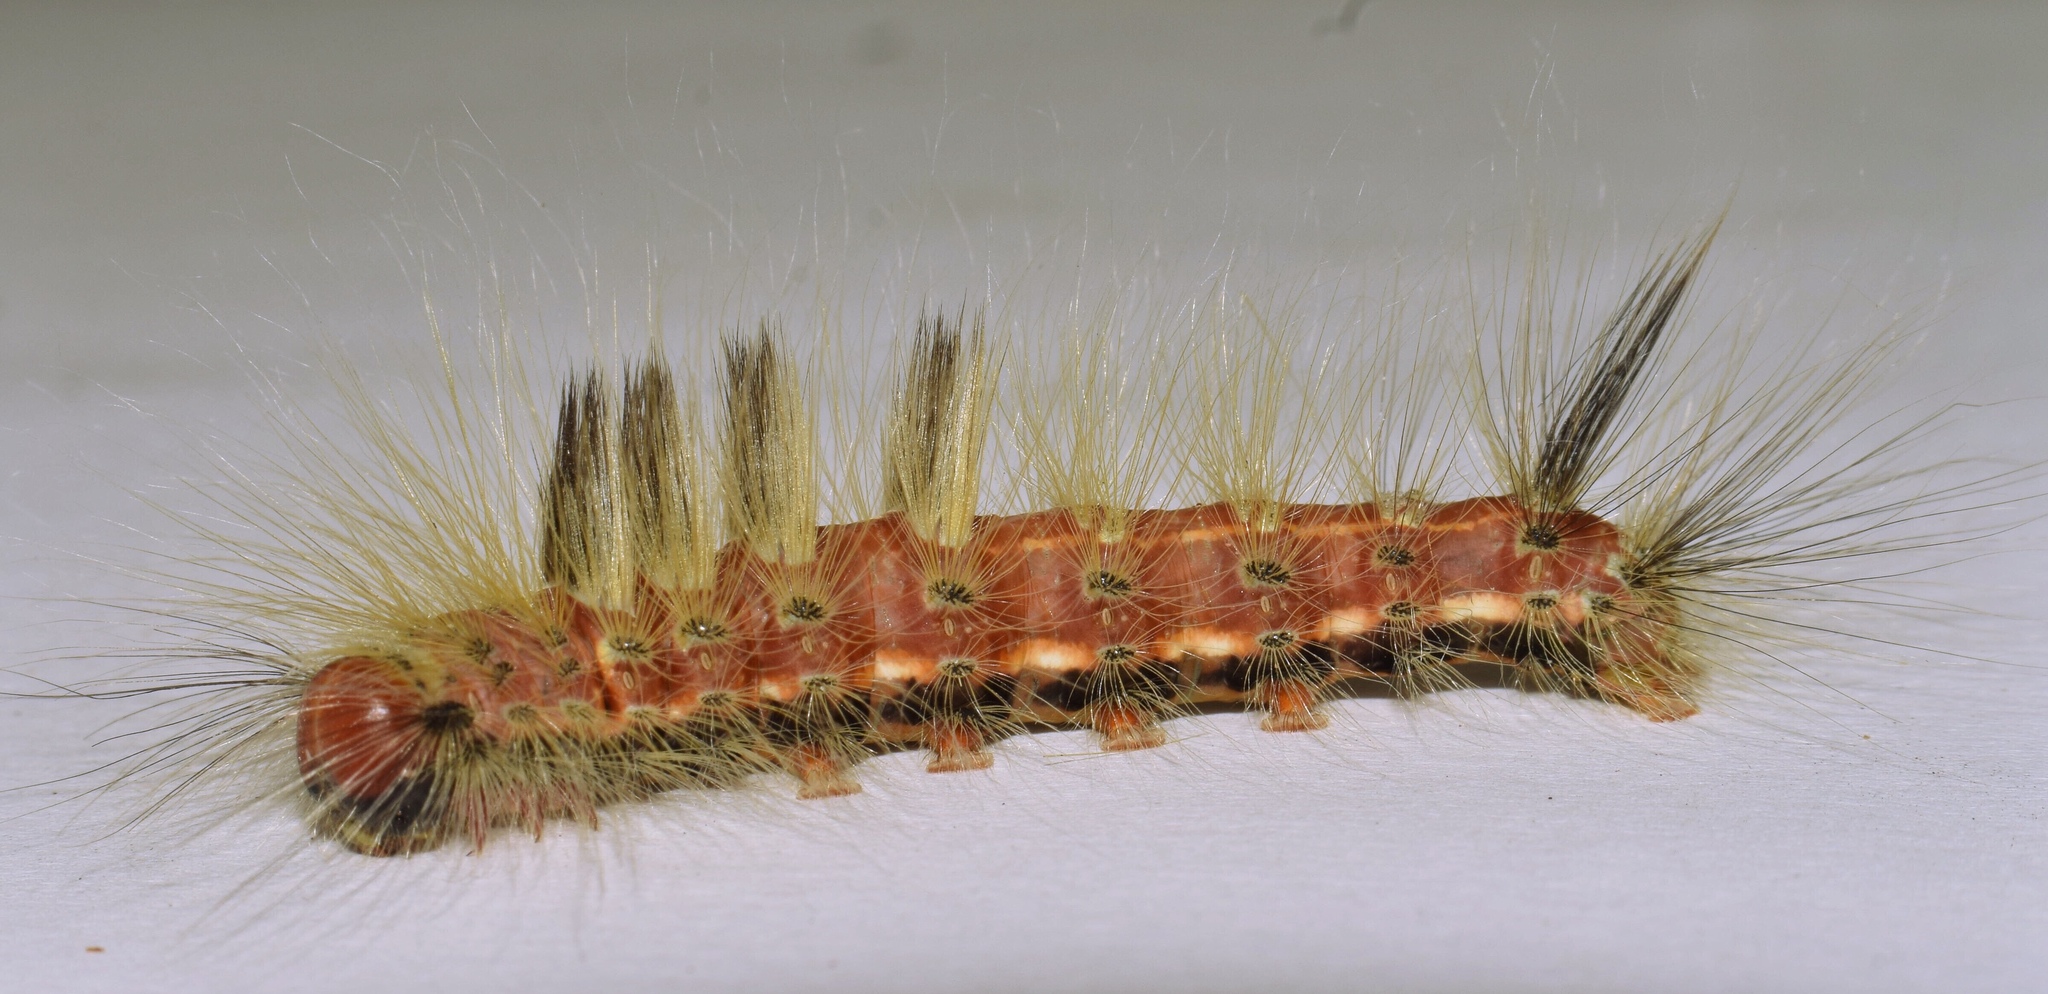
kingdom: Animalia
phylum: Arthropoda
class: Insecta
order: Lepidoptera
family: Erebidae
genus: Dasychira
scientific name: Dasychira georgiana
